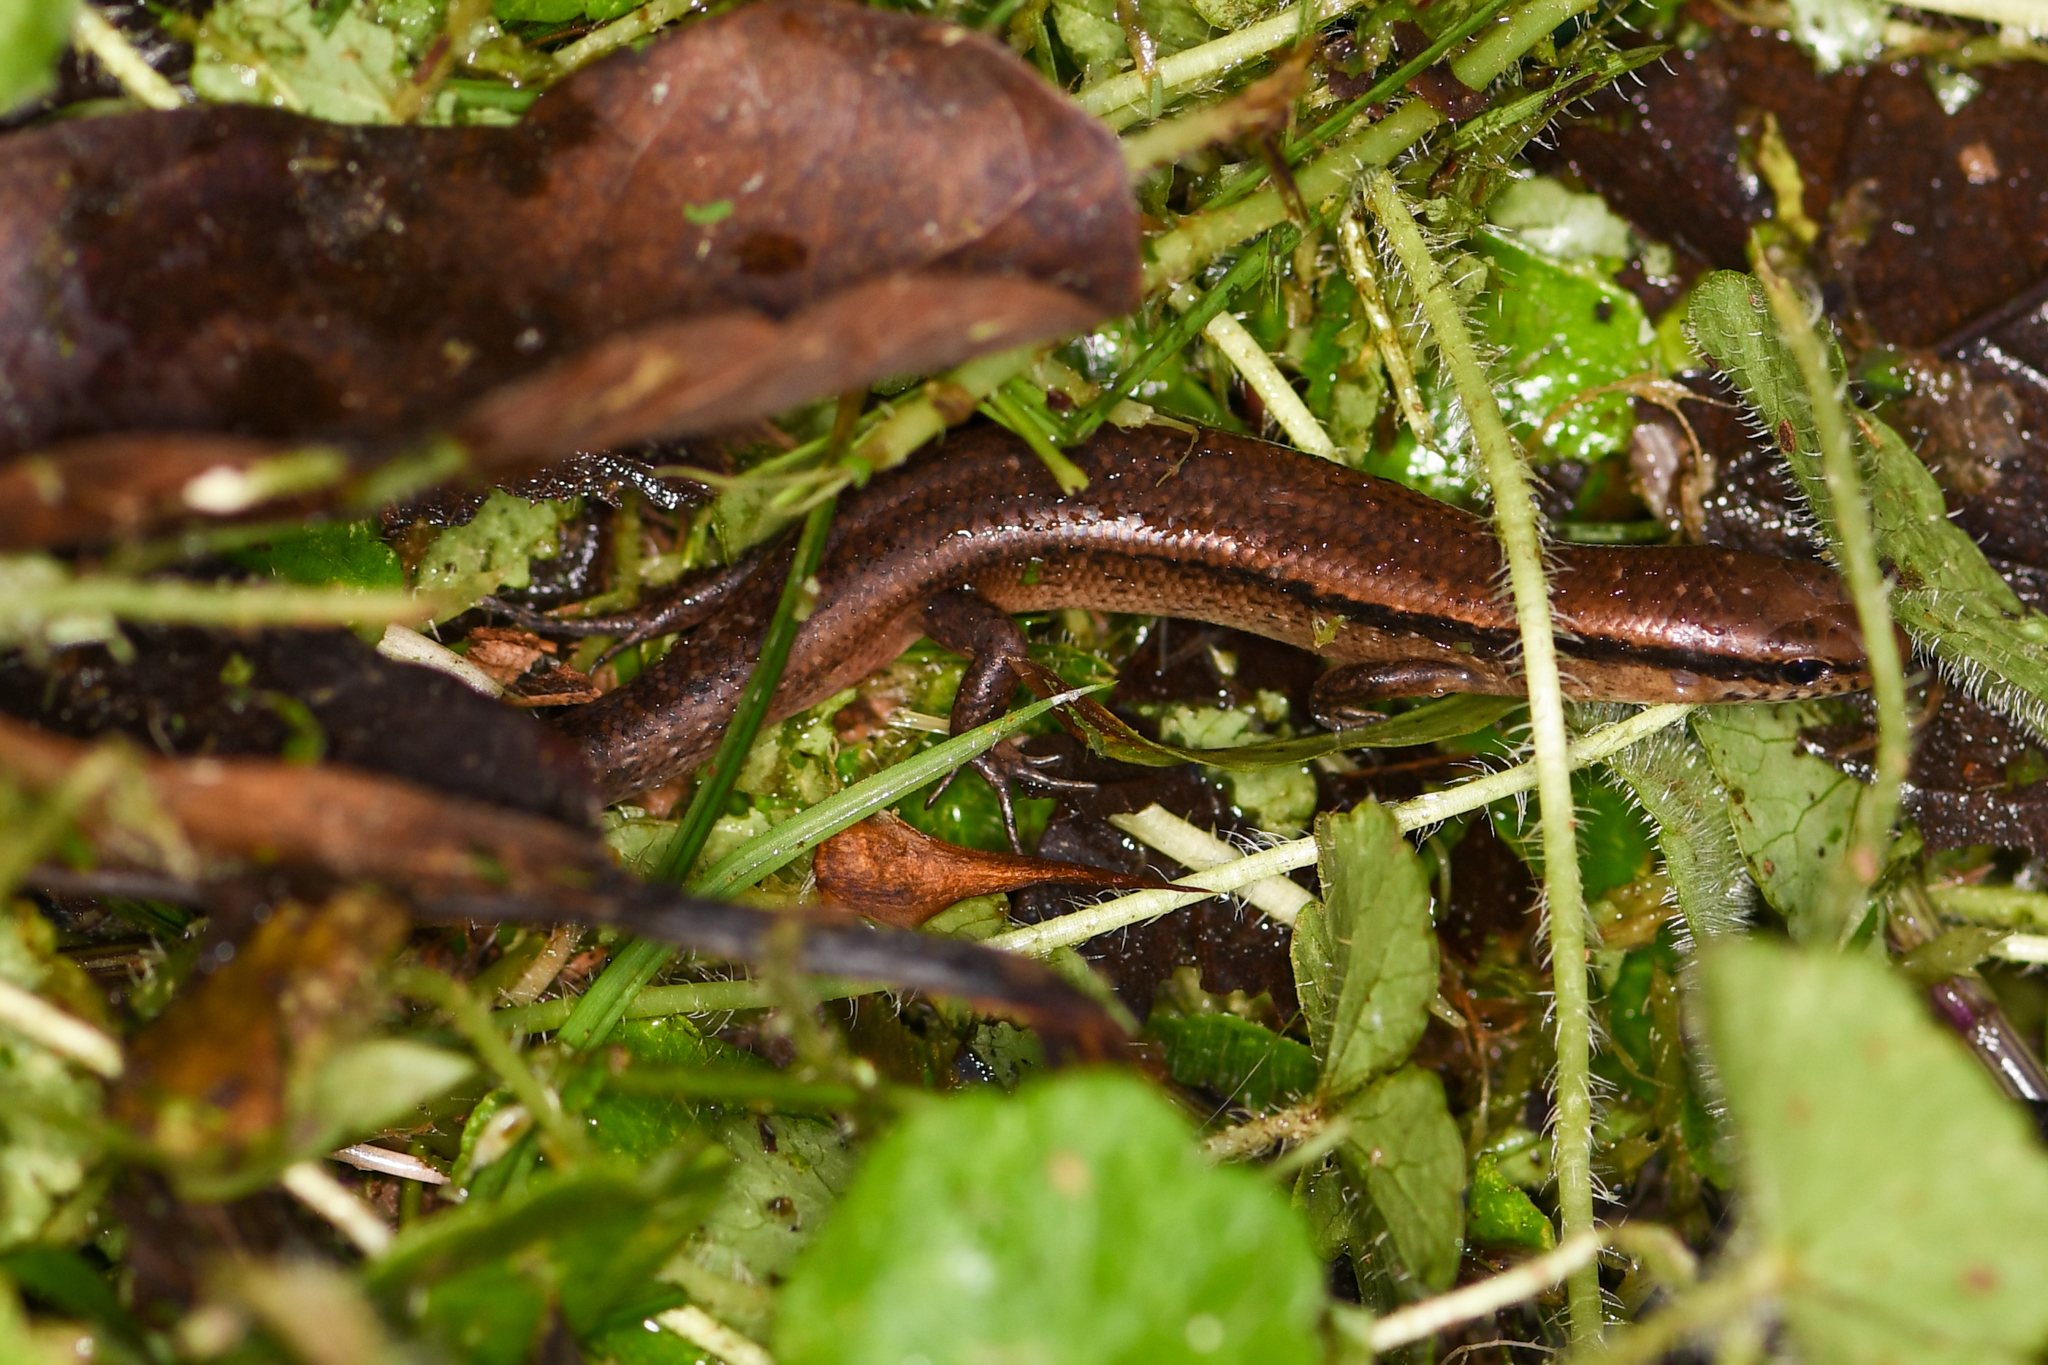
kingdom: Animalia
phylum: Chordata
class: Squamata
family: Scincidae
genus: Scincella
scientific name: Scincella cherriei
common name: Brown forest skink
